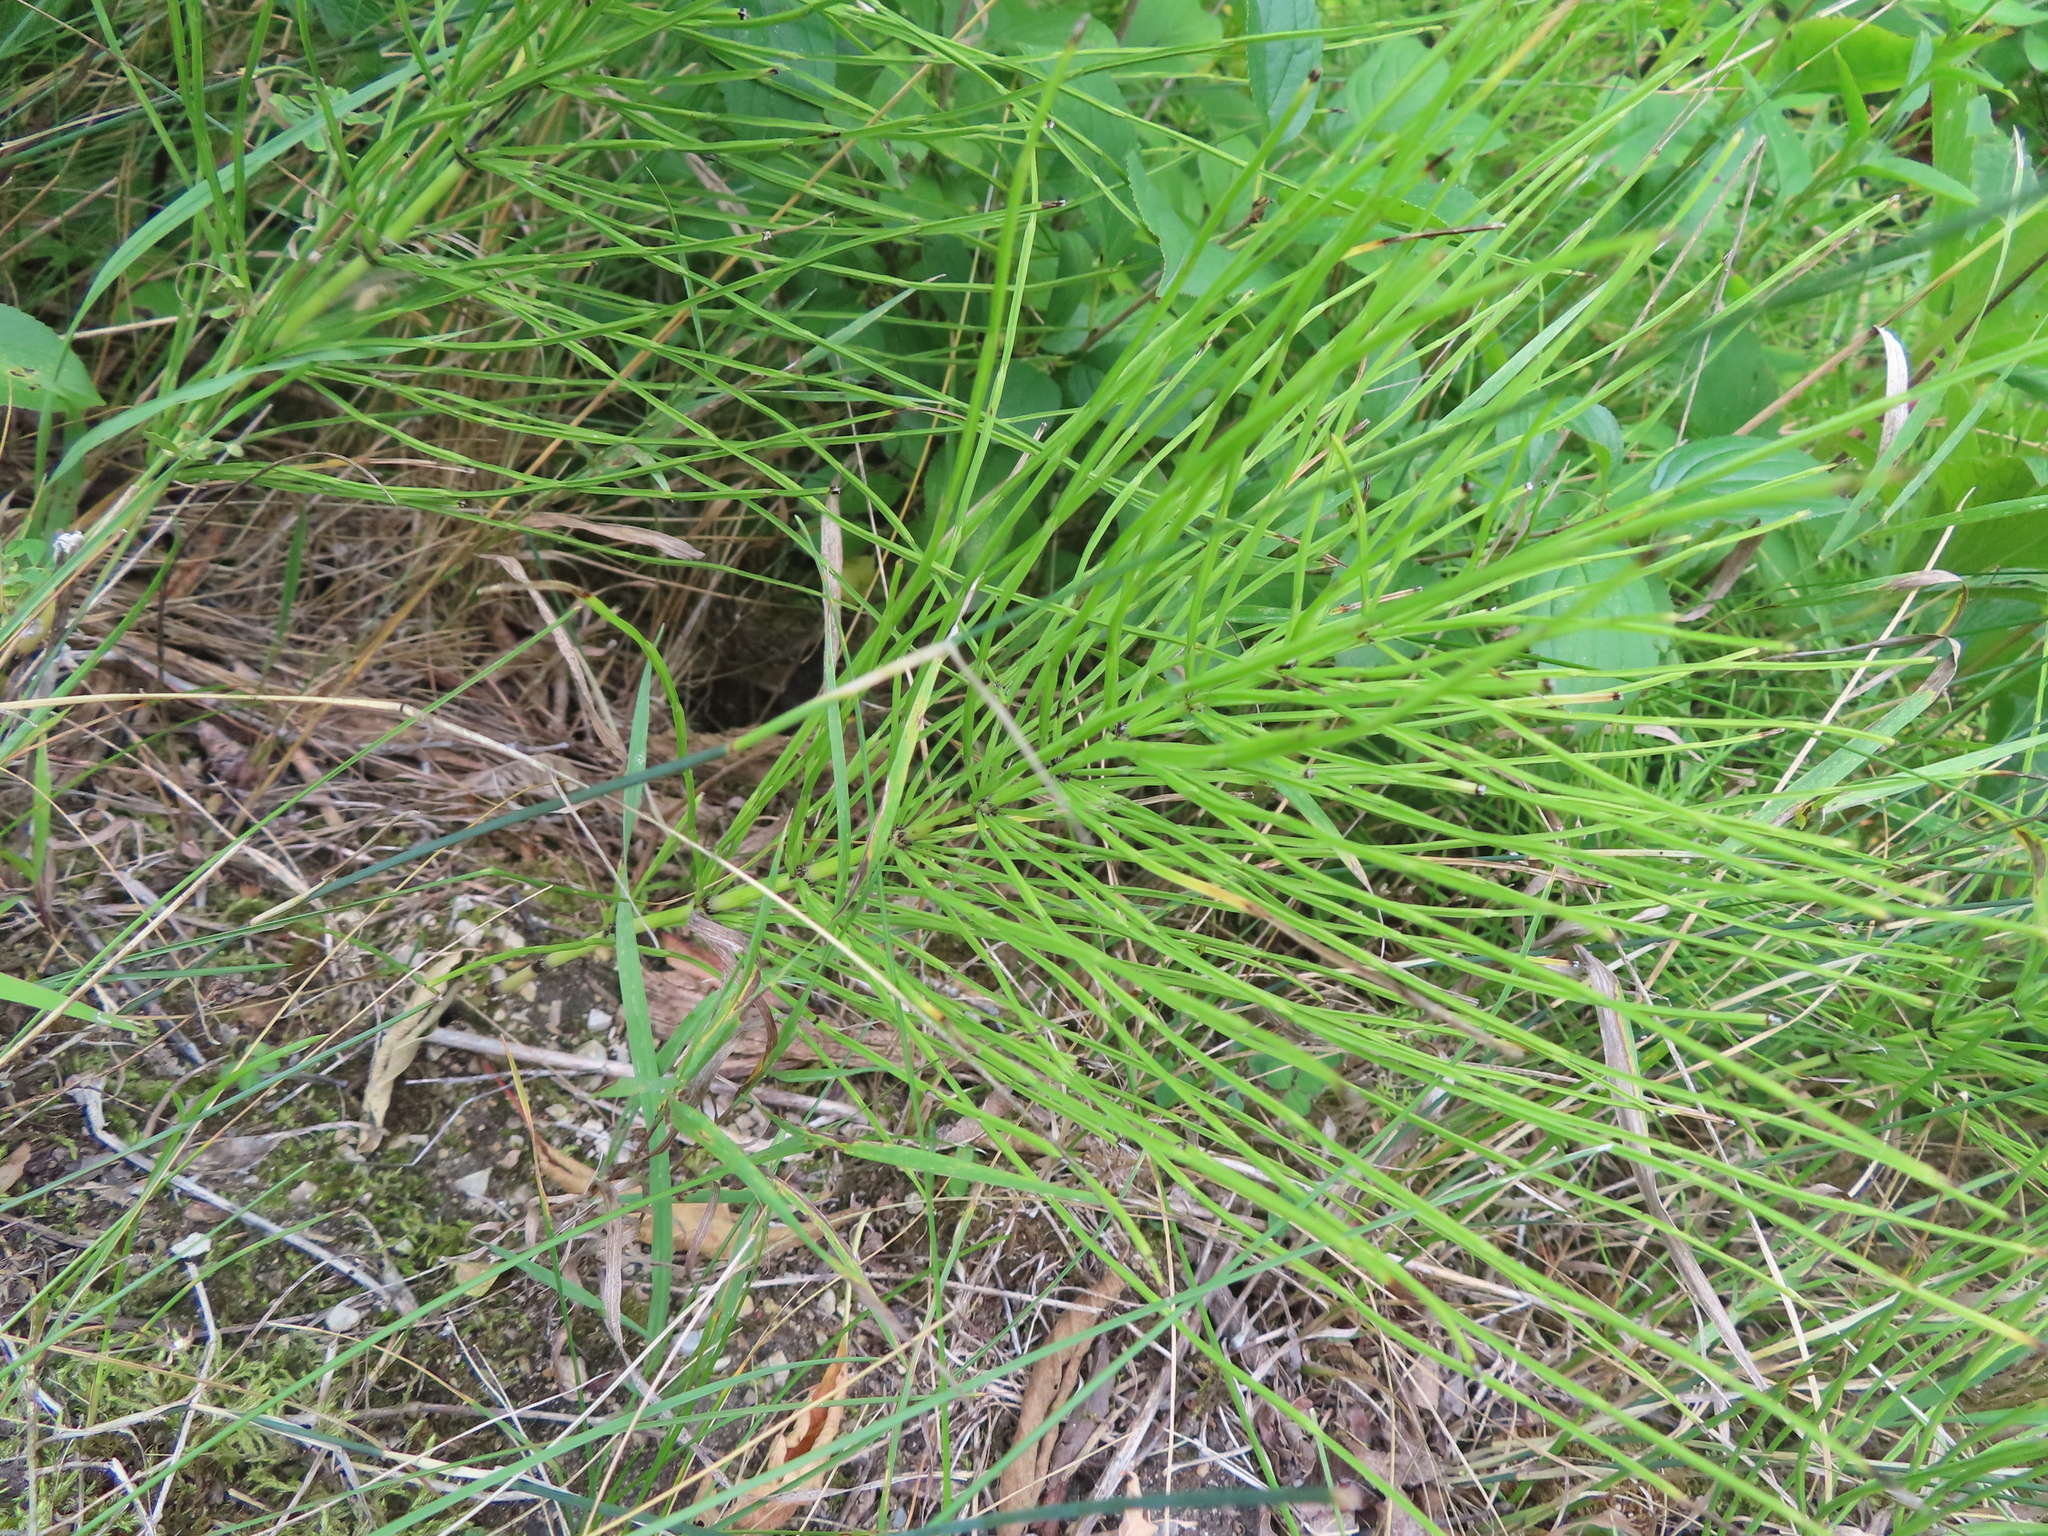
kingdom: Plantae
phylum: Tracheophyta
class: Polypodiopsida
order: Equisetales
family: Equisetaceae
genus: Equisetum
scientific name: Equisetum arvense
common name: Field horsetail
